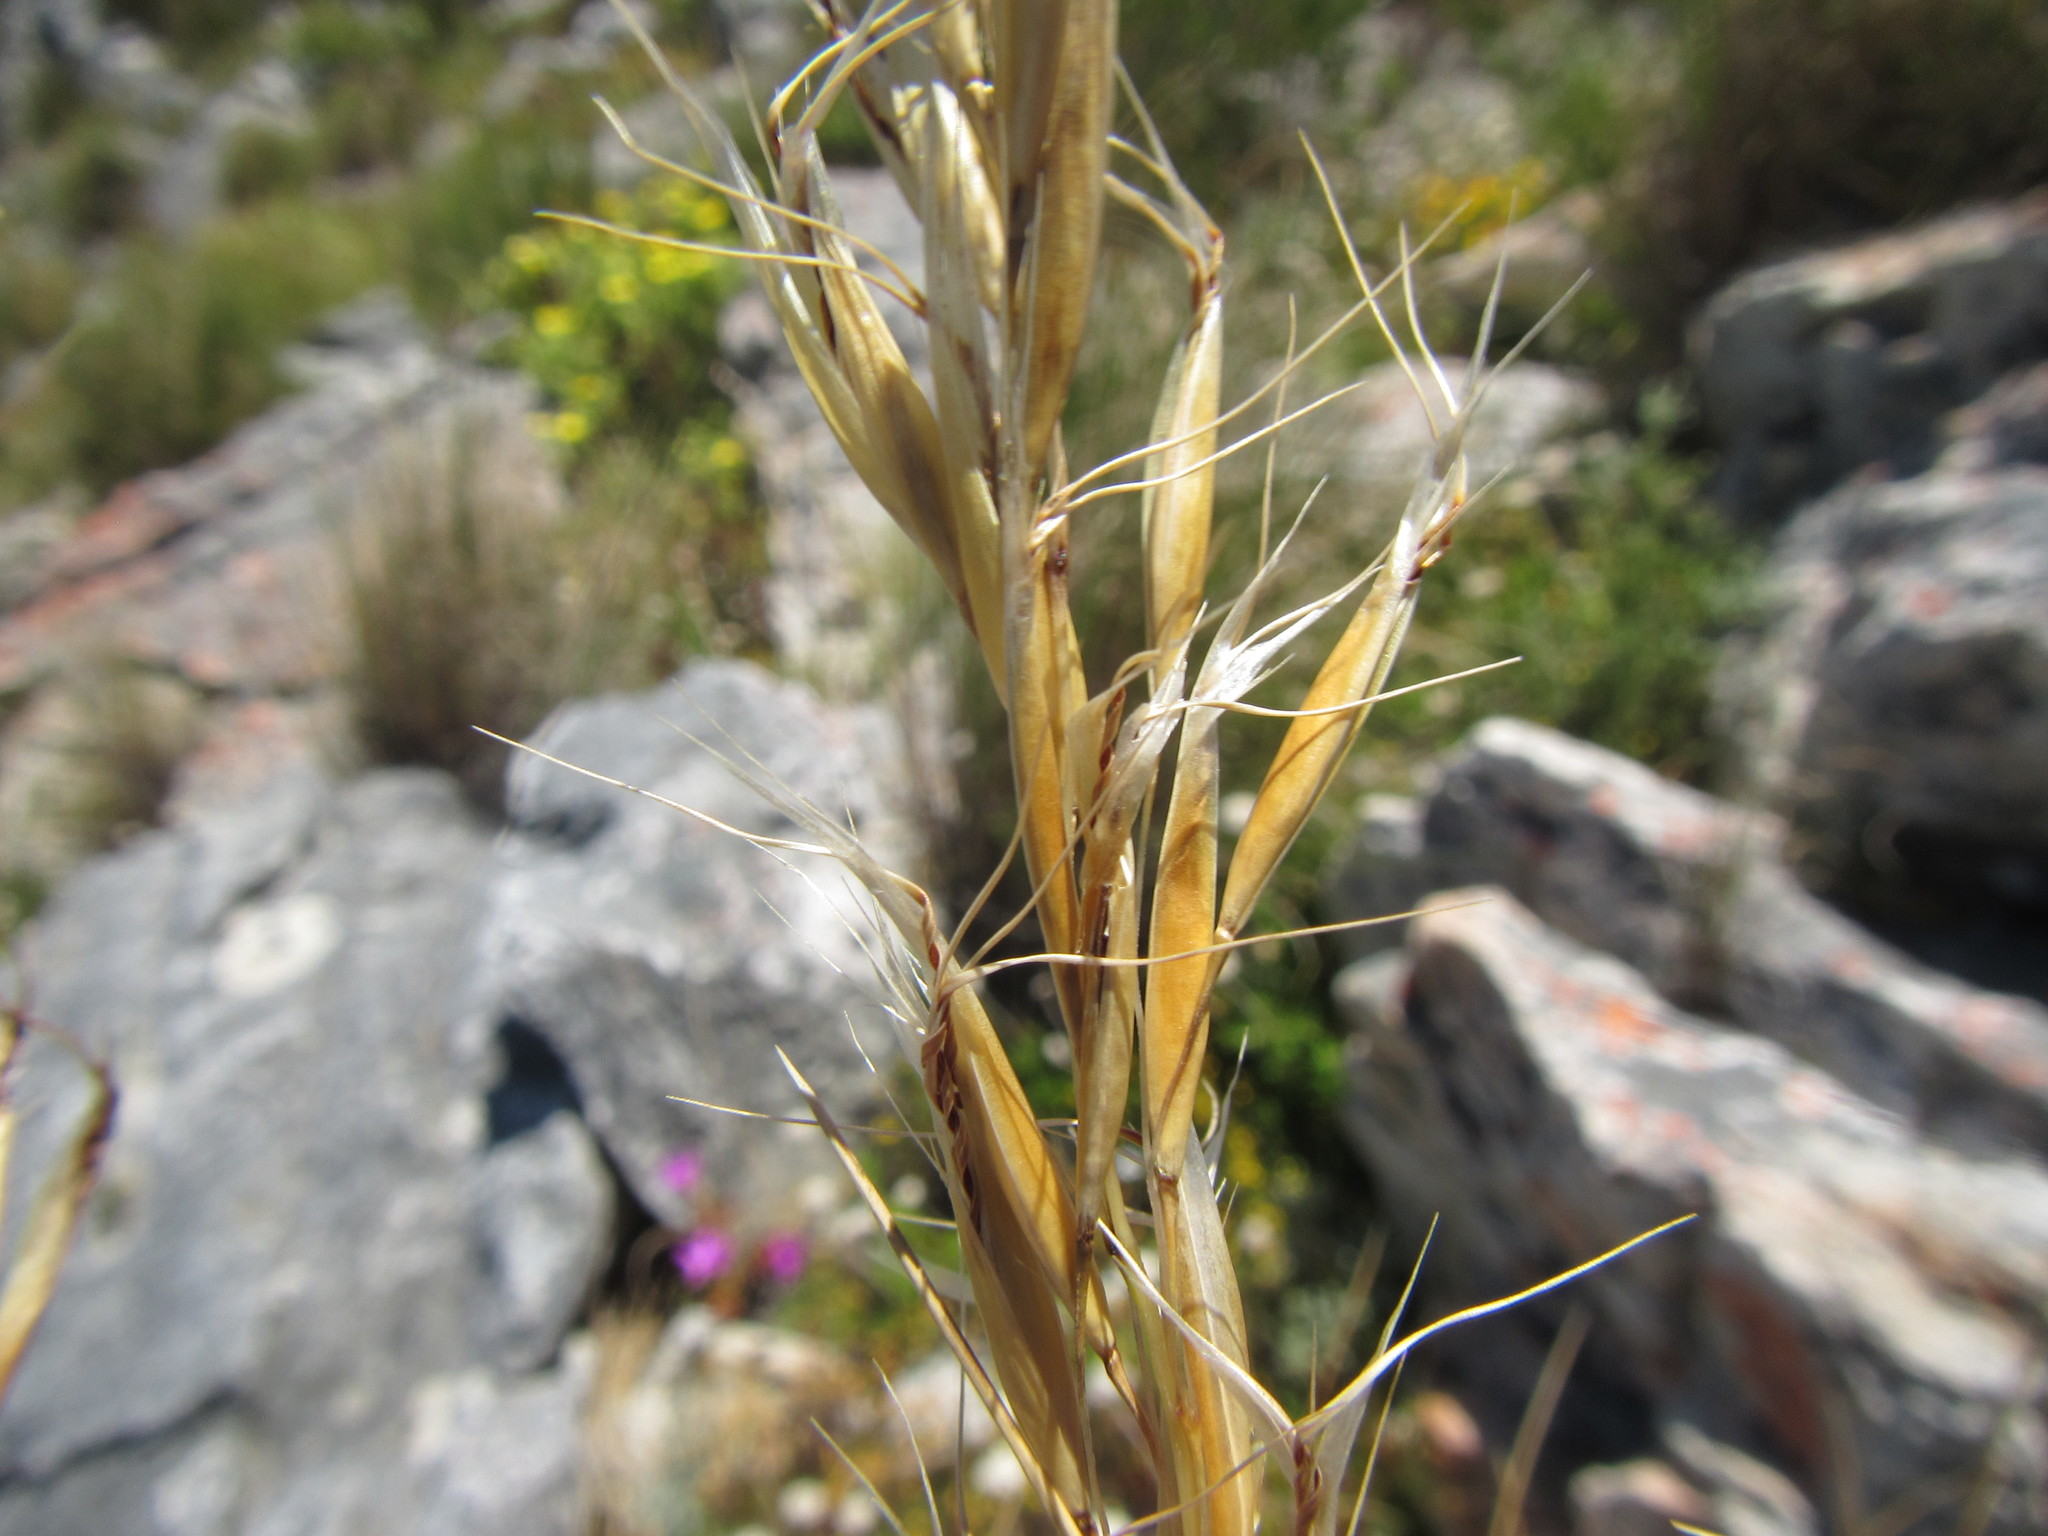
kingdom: Plantae
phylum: Tracheophyta
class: Liliopsida
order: Poales
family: Poaceae
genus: Pentameris
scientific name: Pentameris macrocalycina
